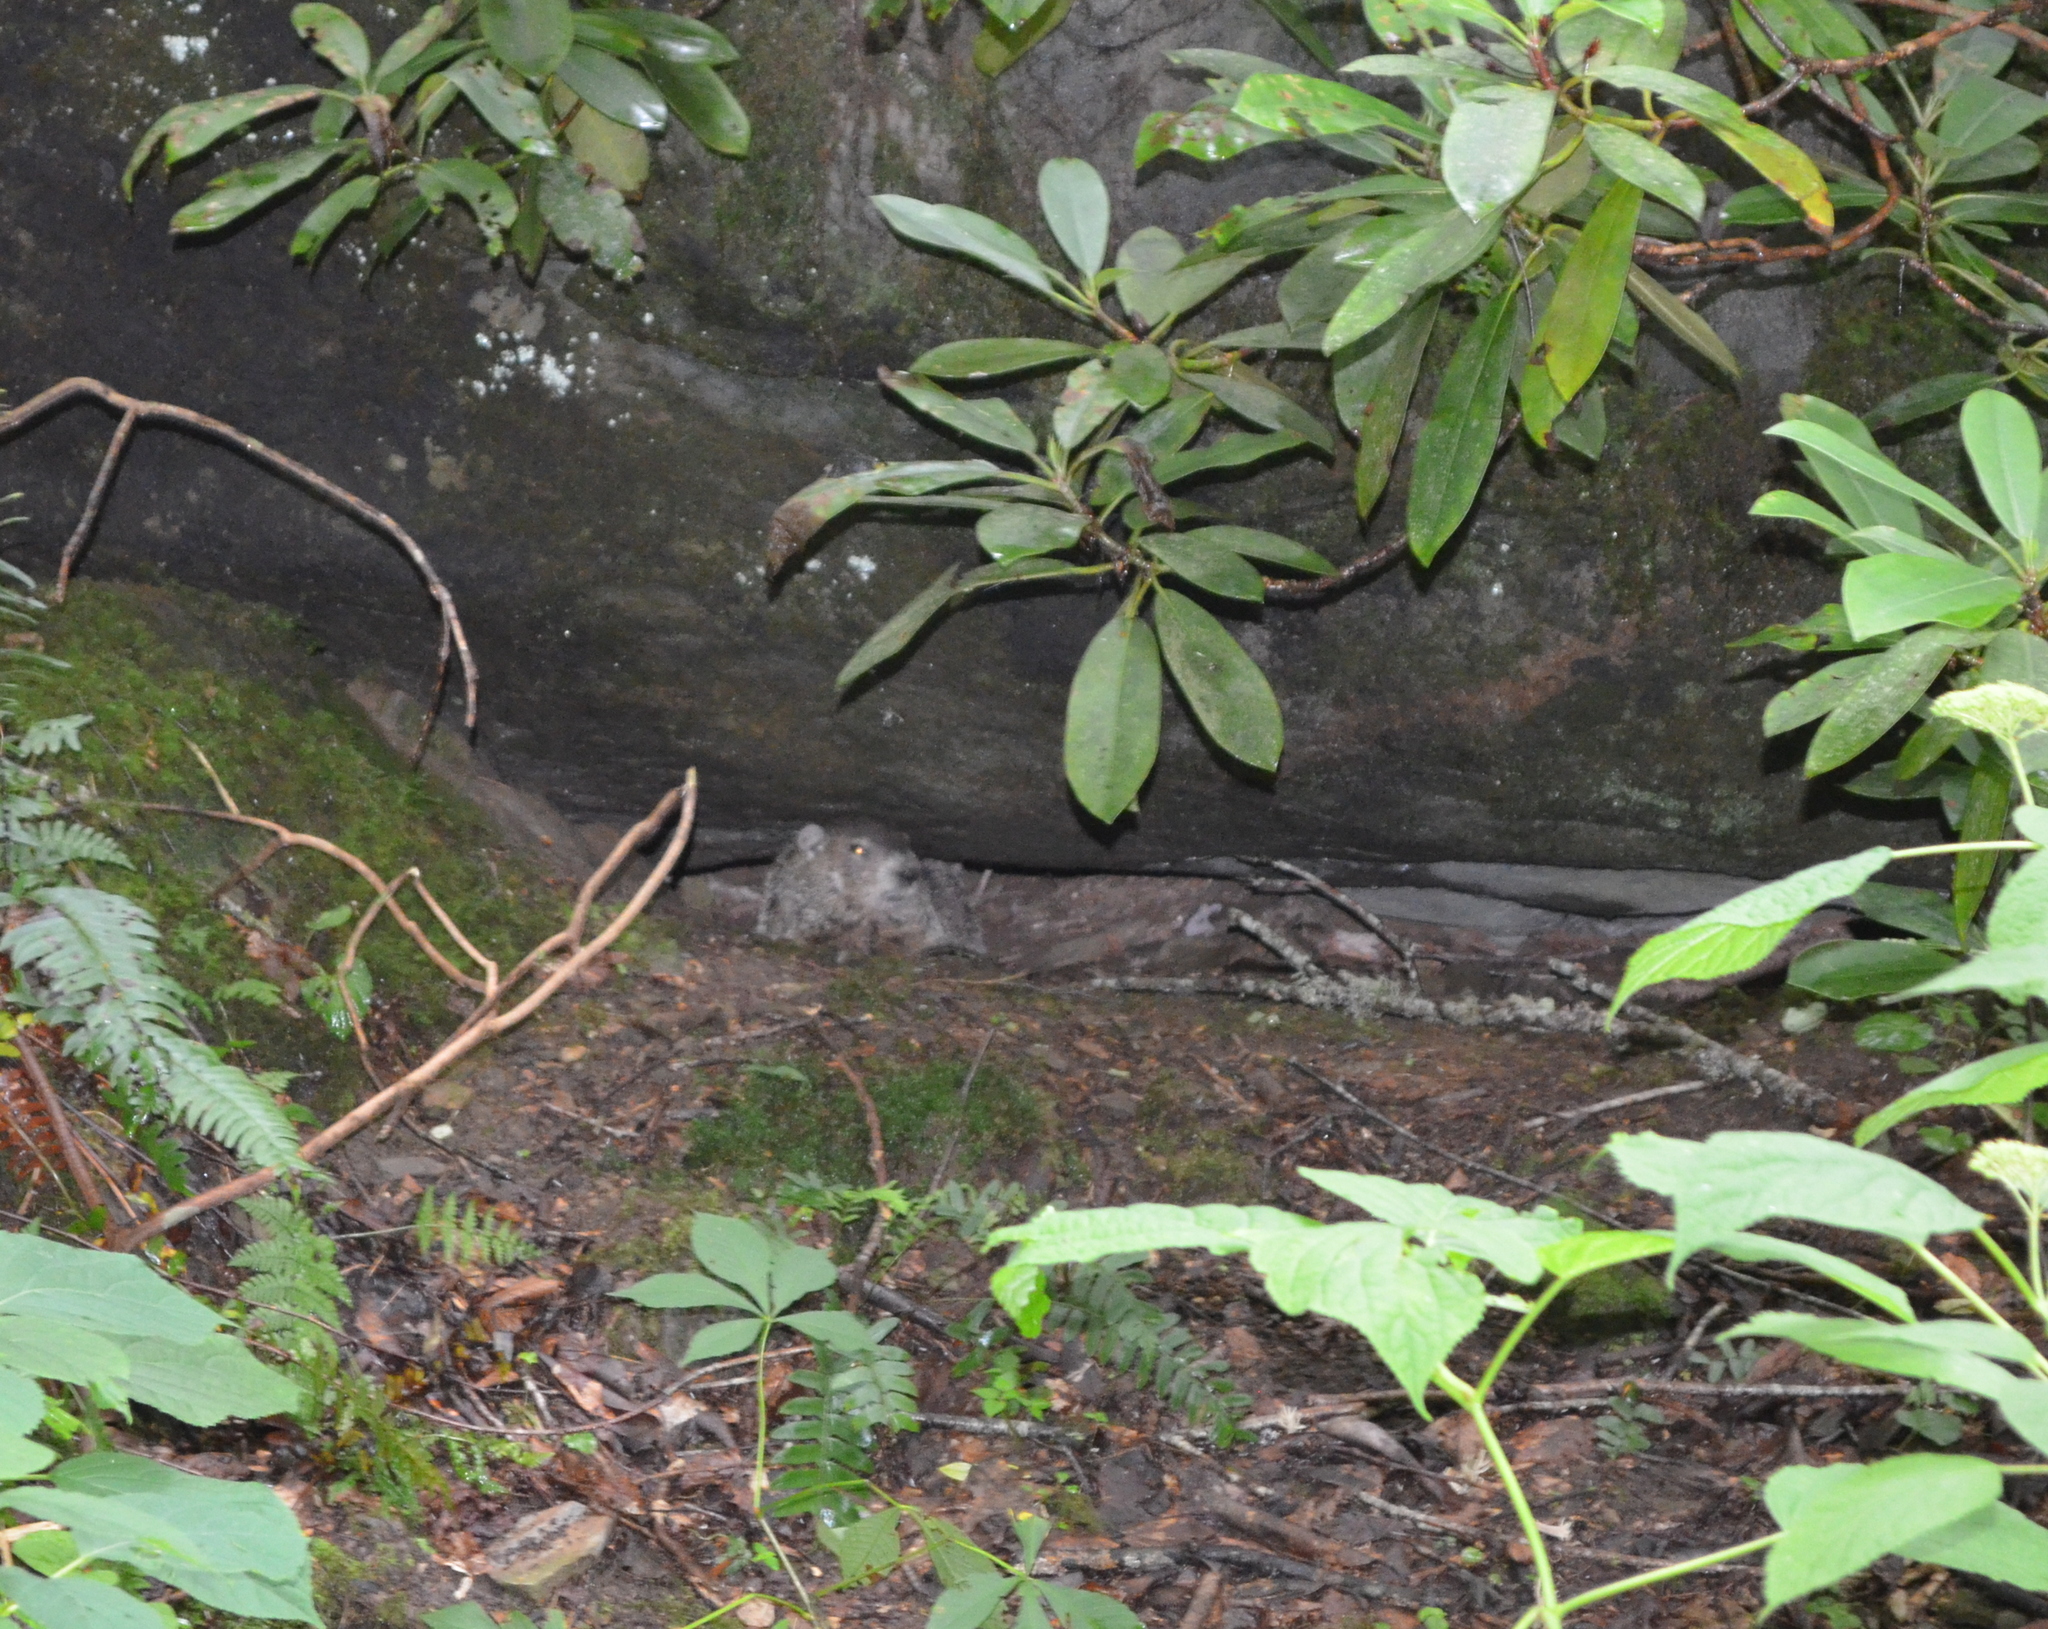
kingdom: Animalia
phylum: Chordata
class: Mammalia
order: Rodentia
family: Sciuridae
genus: Marmota
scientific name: Marmota monax
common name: Groundhog
